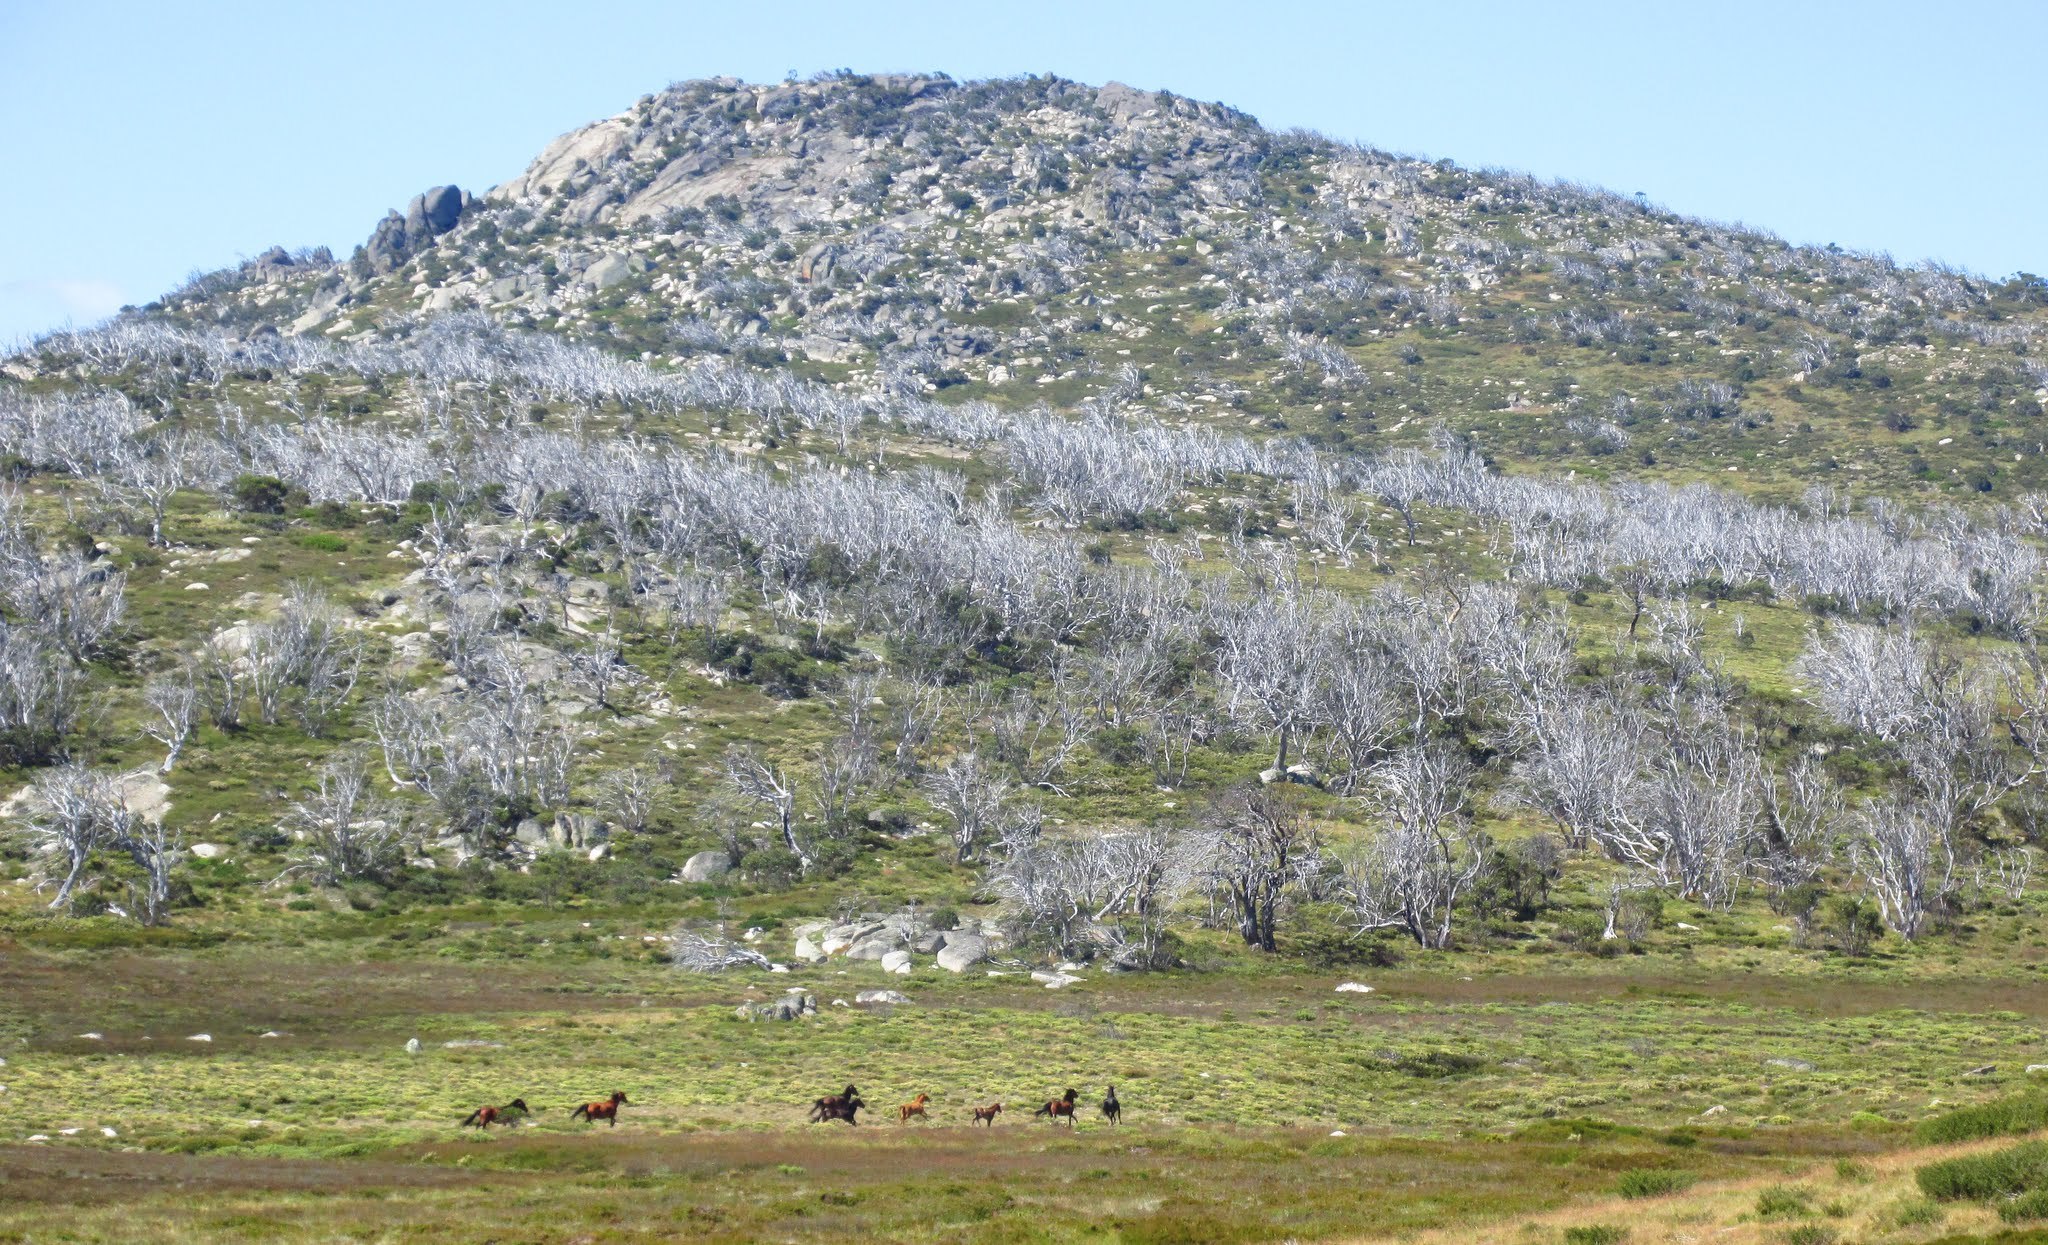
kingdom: Animalia
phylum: Chordata
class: Mammalia
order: Perissodactyla
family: Equidae
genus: Equus
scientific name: Equus caballus
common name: Horse
